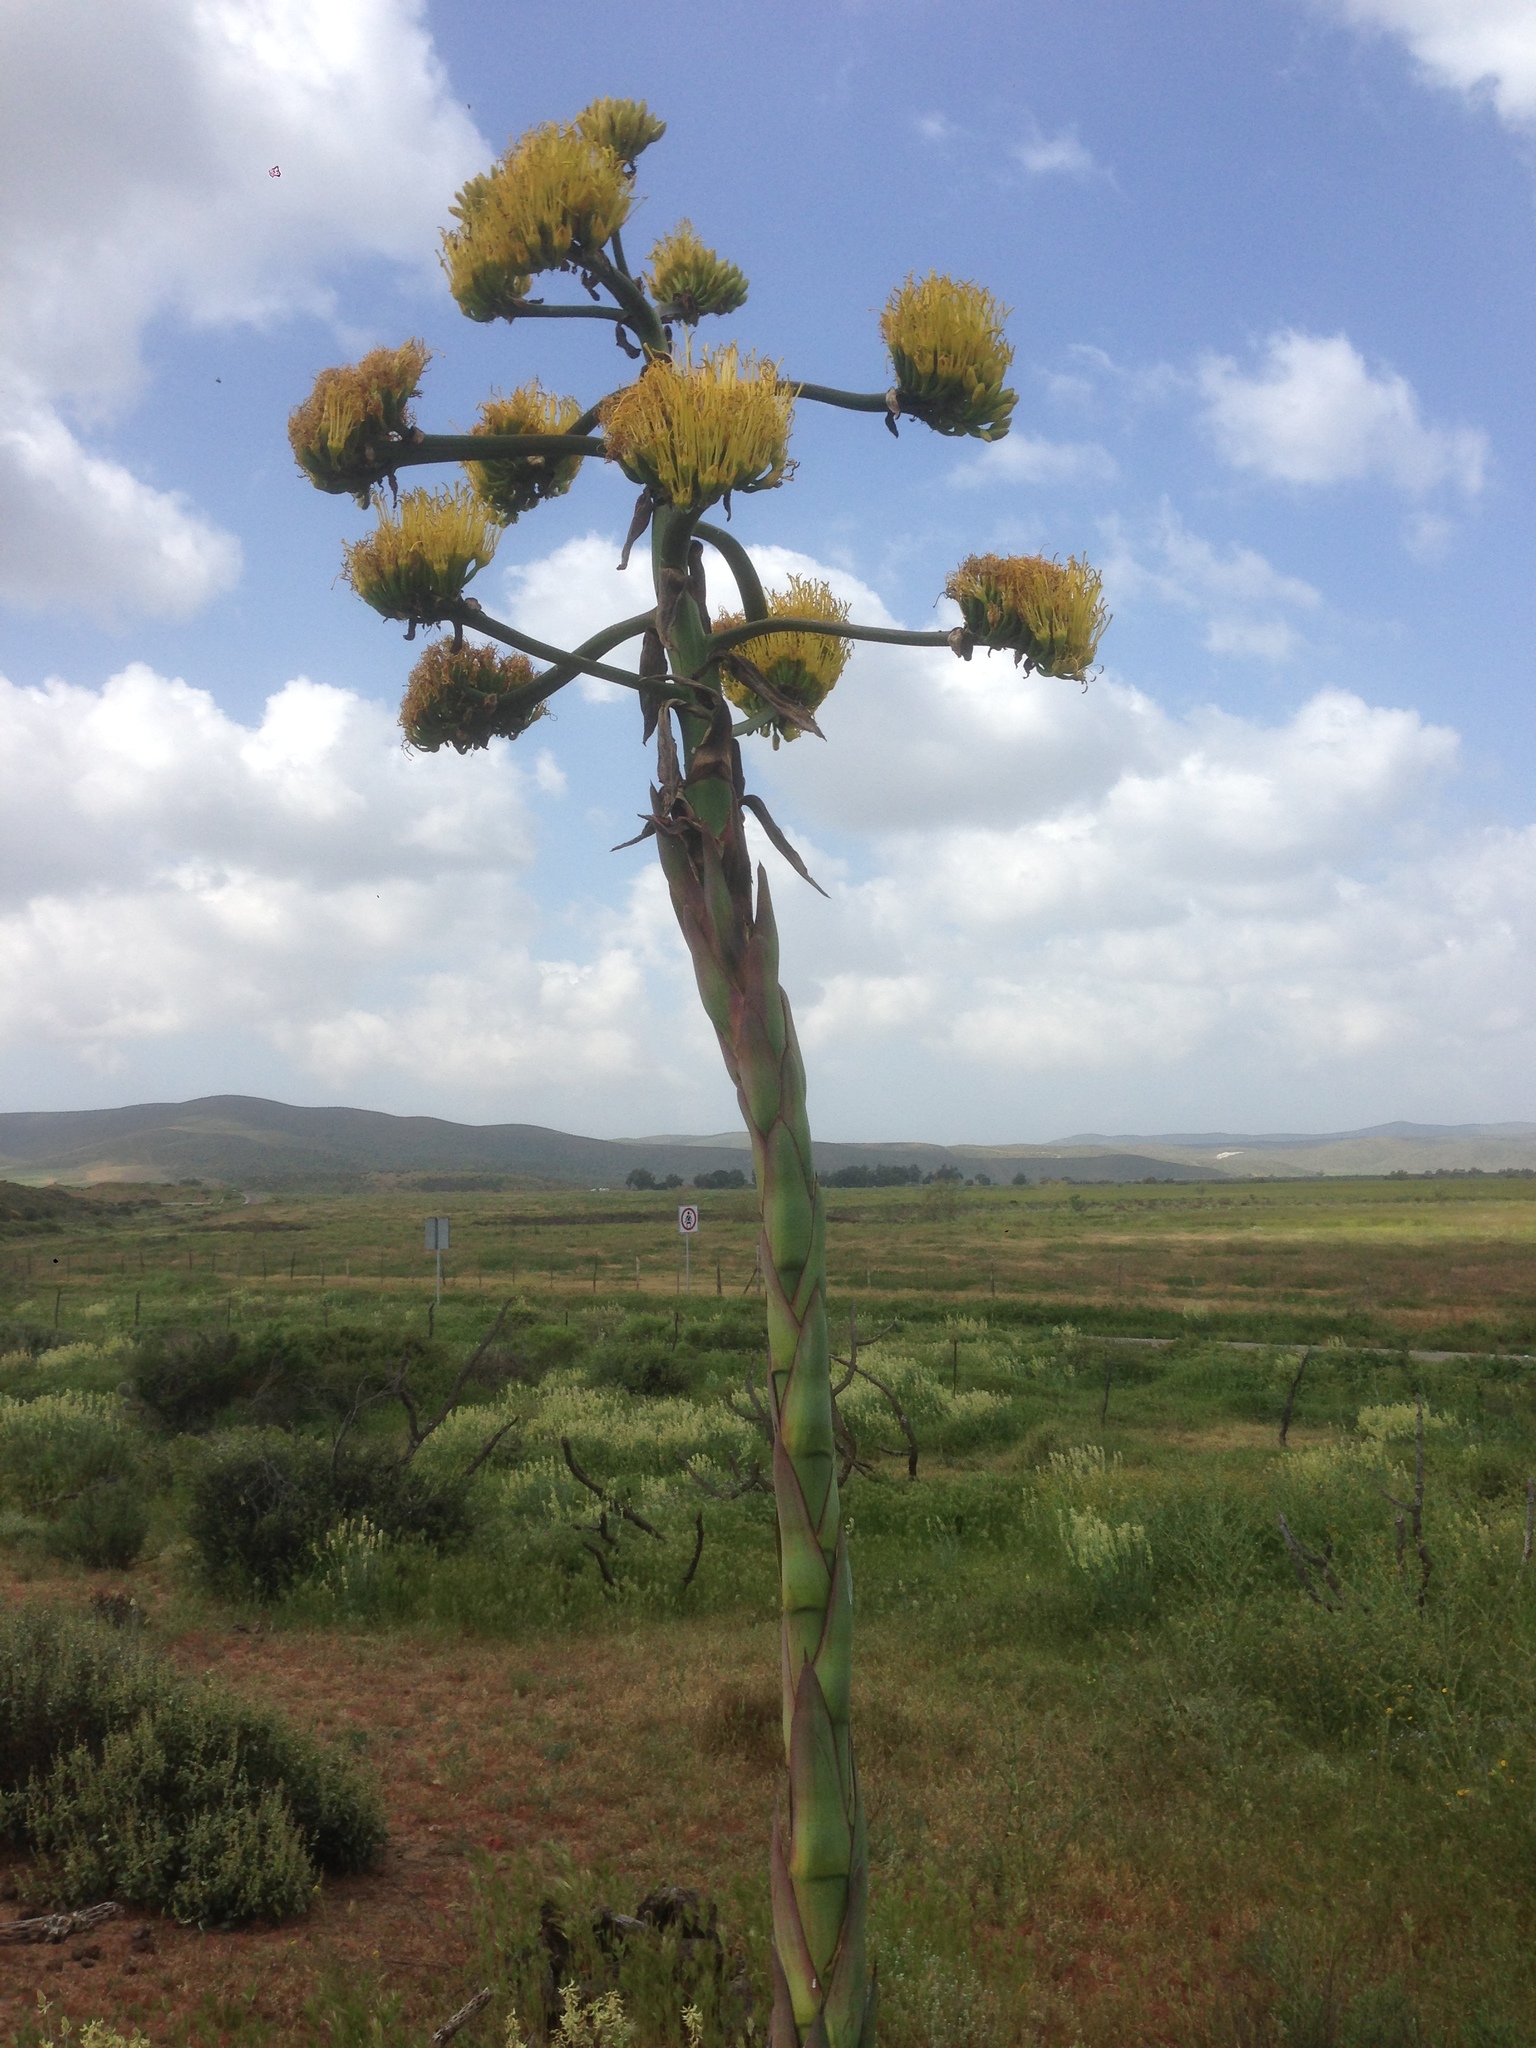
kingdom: Plantae
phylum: Tracheophyta
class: Liliopsida
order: Asparagales
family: Asparagaceae
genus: Agave
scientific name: Agave shawii
